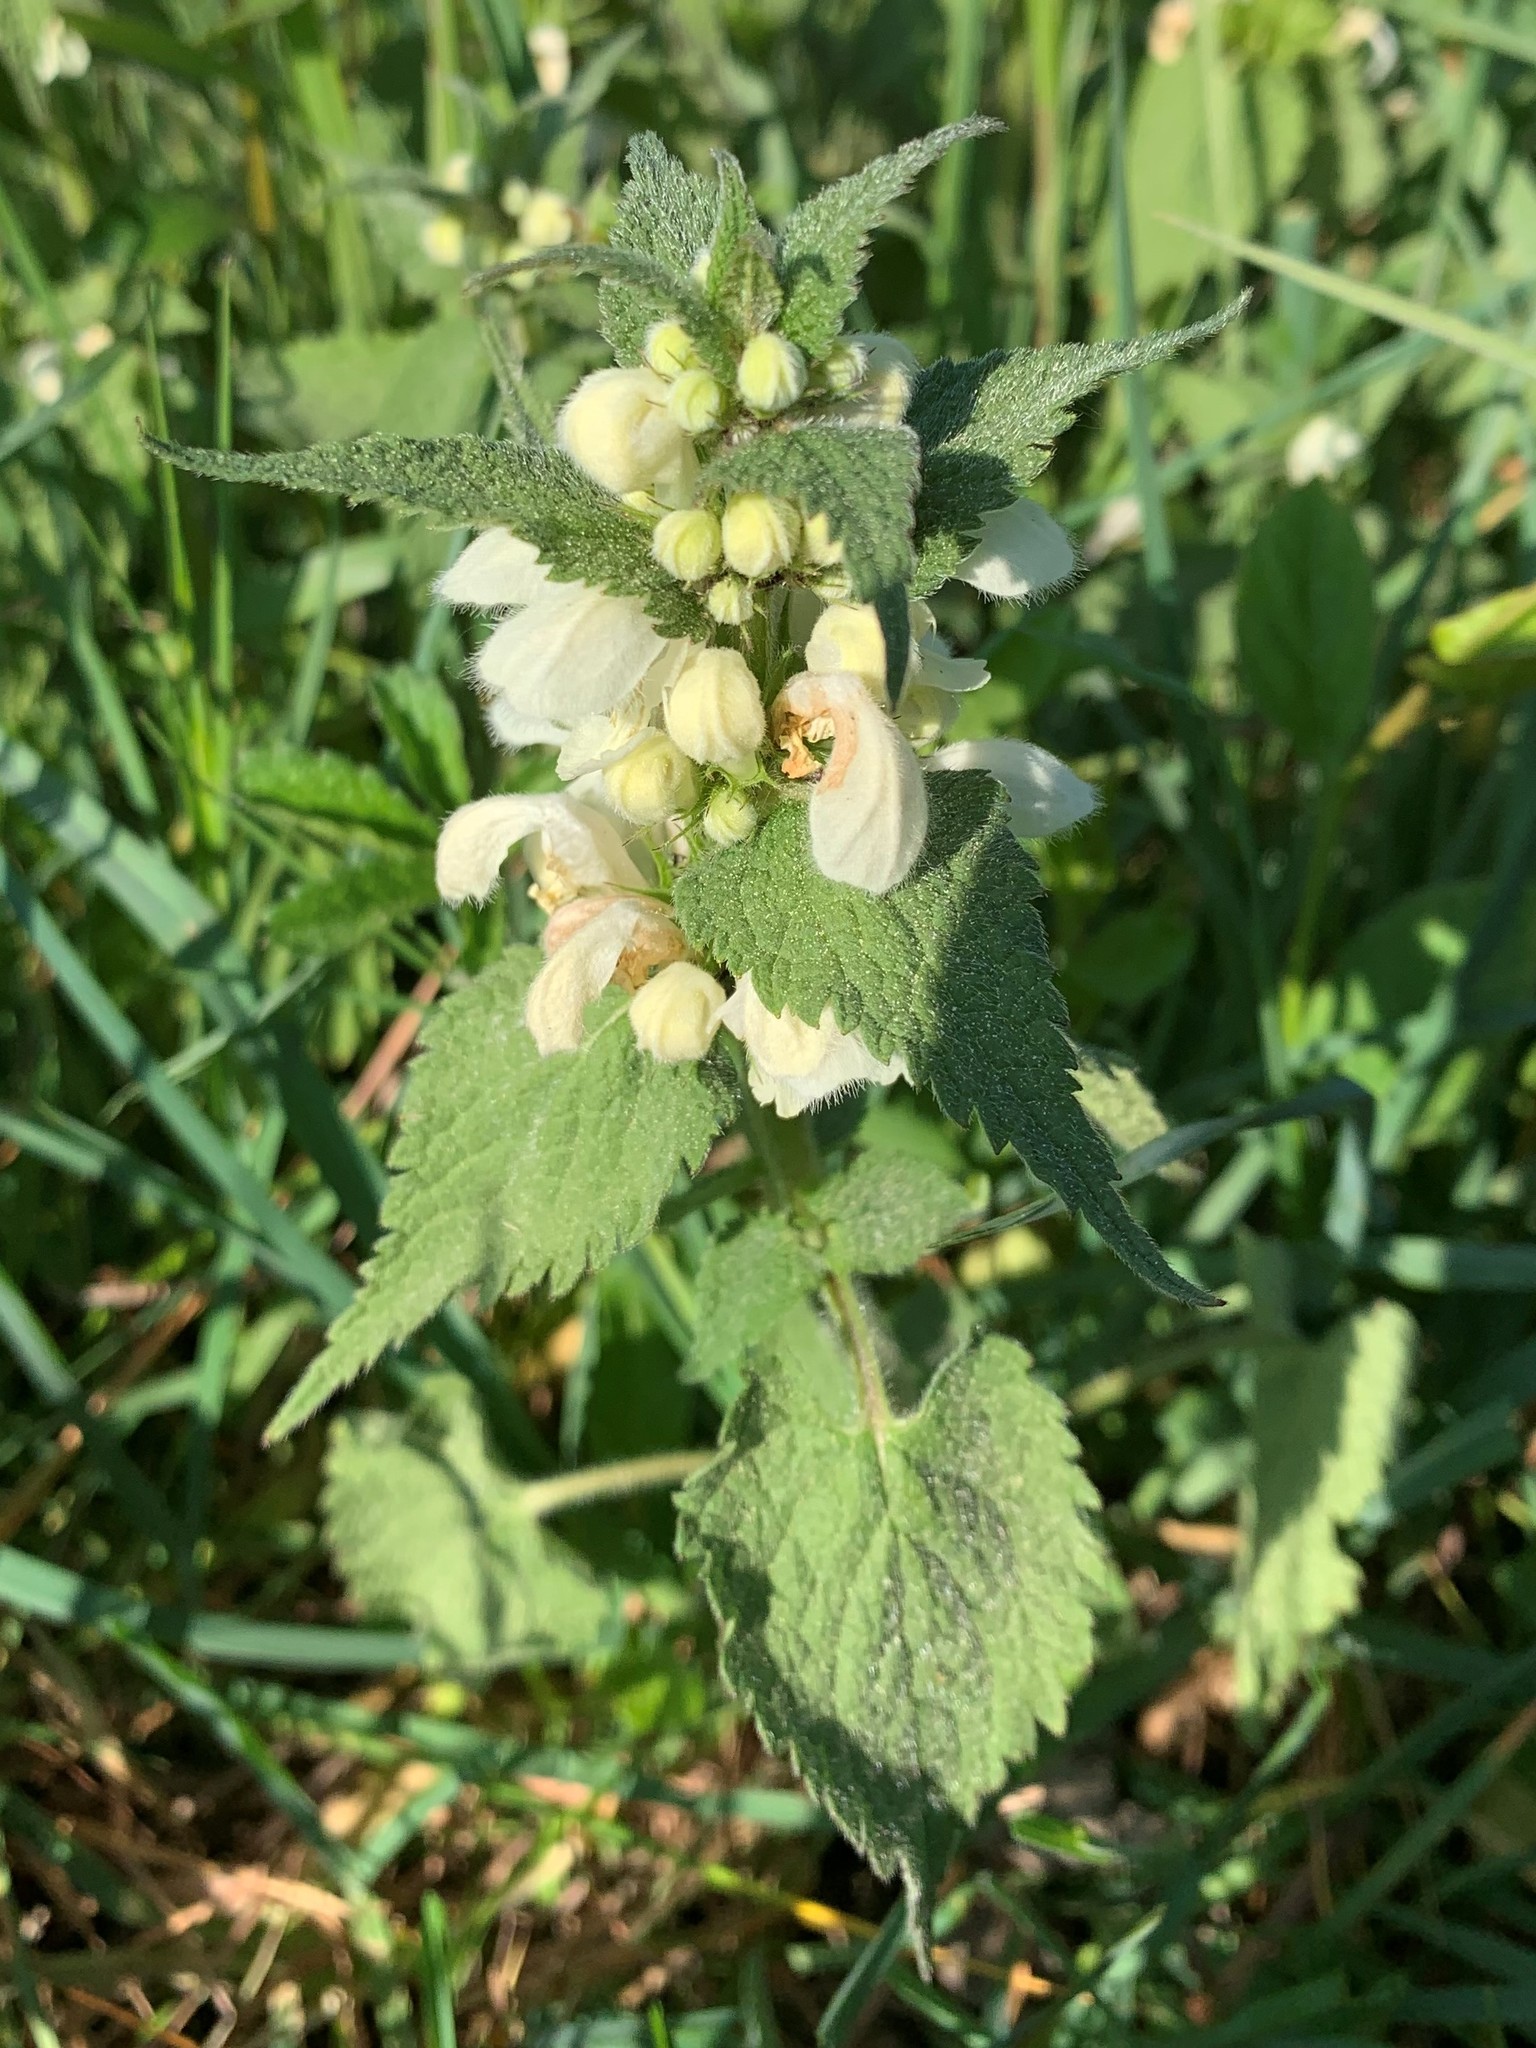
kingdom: Plantae
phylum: Tracheophyta
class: Magnoliopsida
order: Lamiales
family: Lamiaceae
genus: Lamium
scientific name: Lamium album
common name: White dead-nettle
